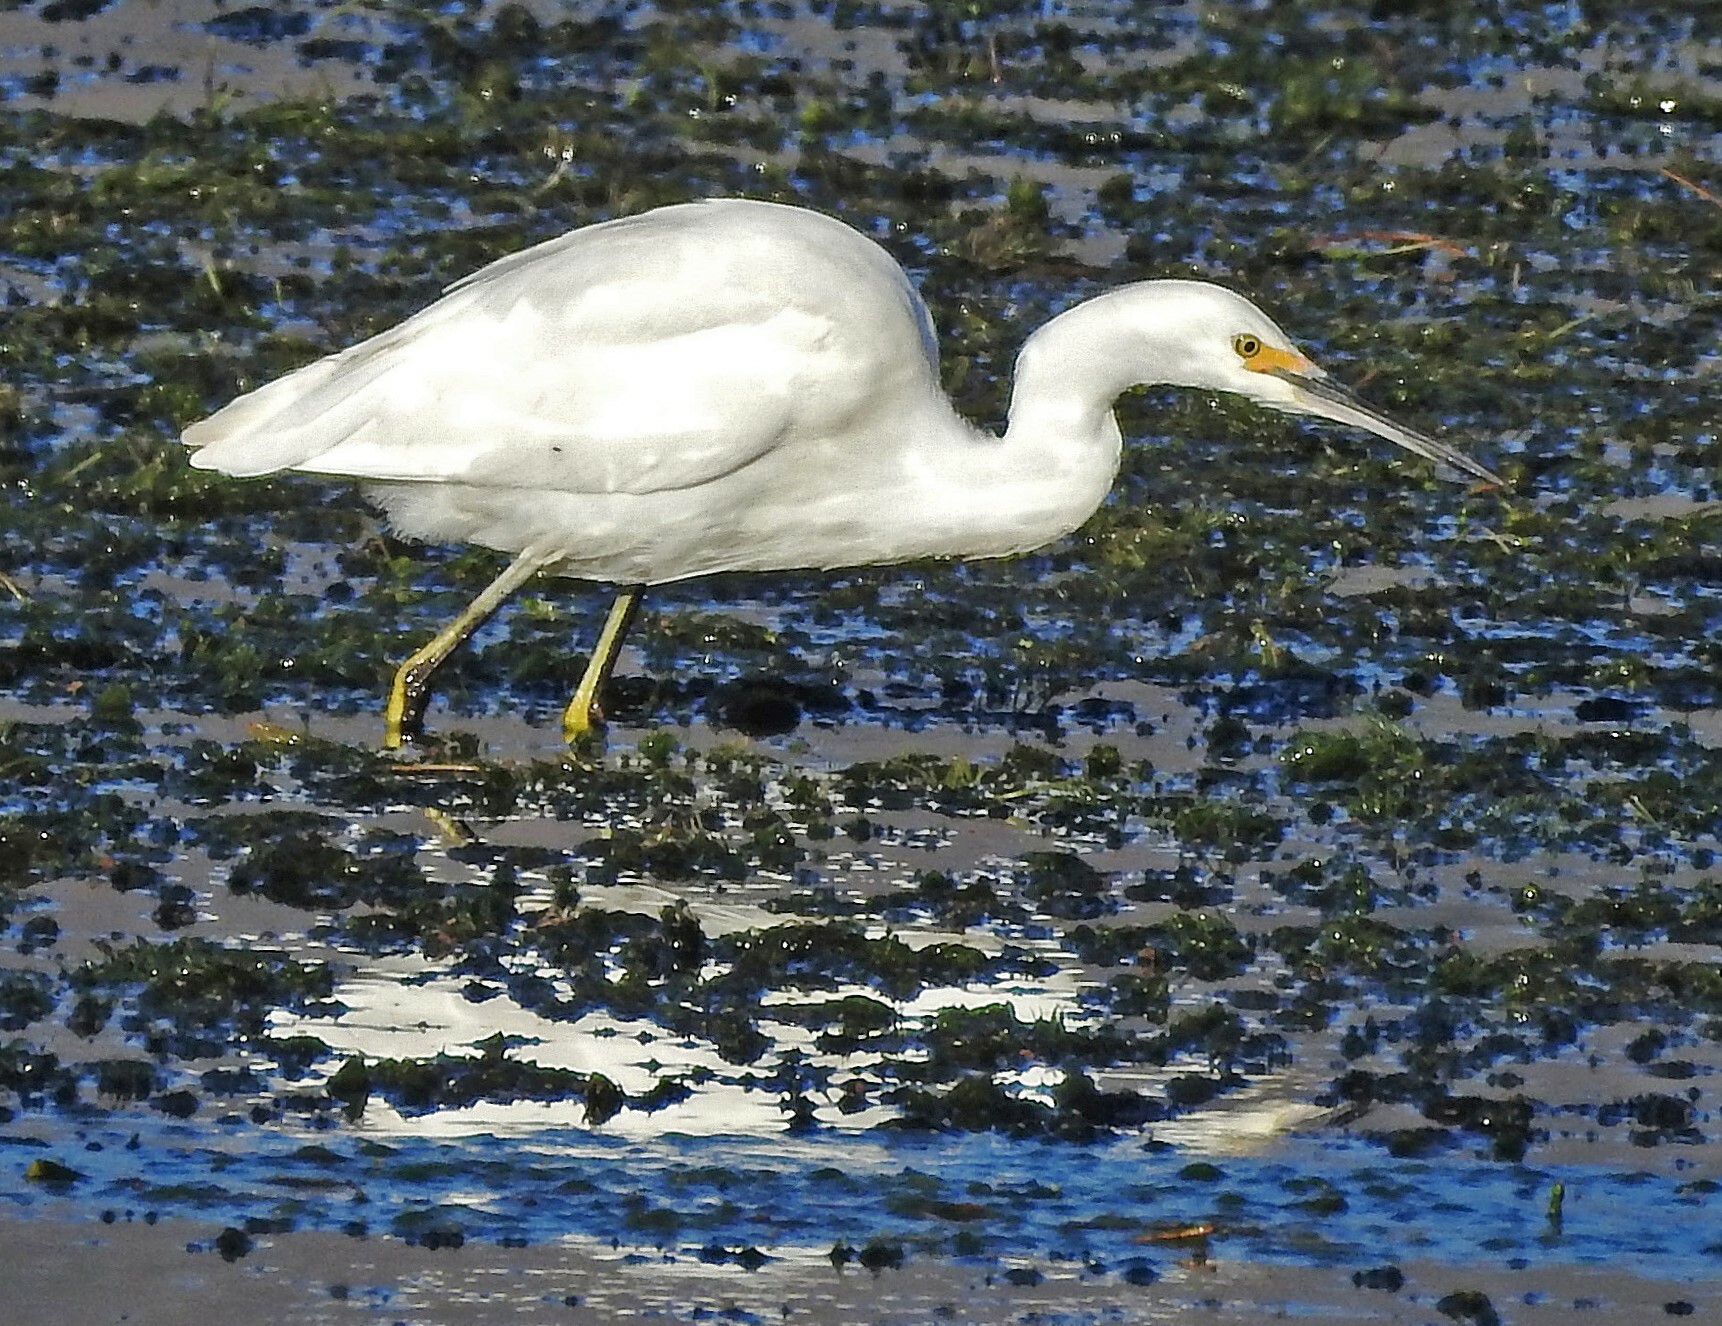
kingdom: Animalia
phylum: Chordata
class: Aves
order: Pelecaniformes
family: Ardeidae
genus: Egretta
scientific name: Egretta thula
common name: Snowy egret
